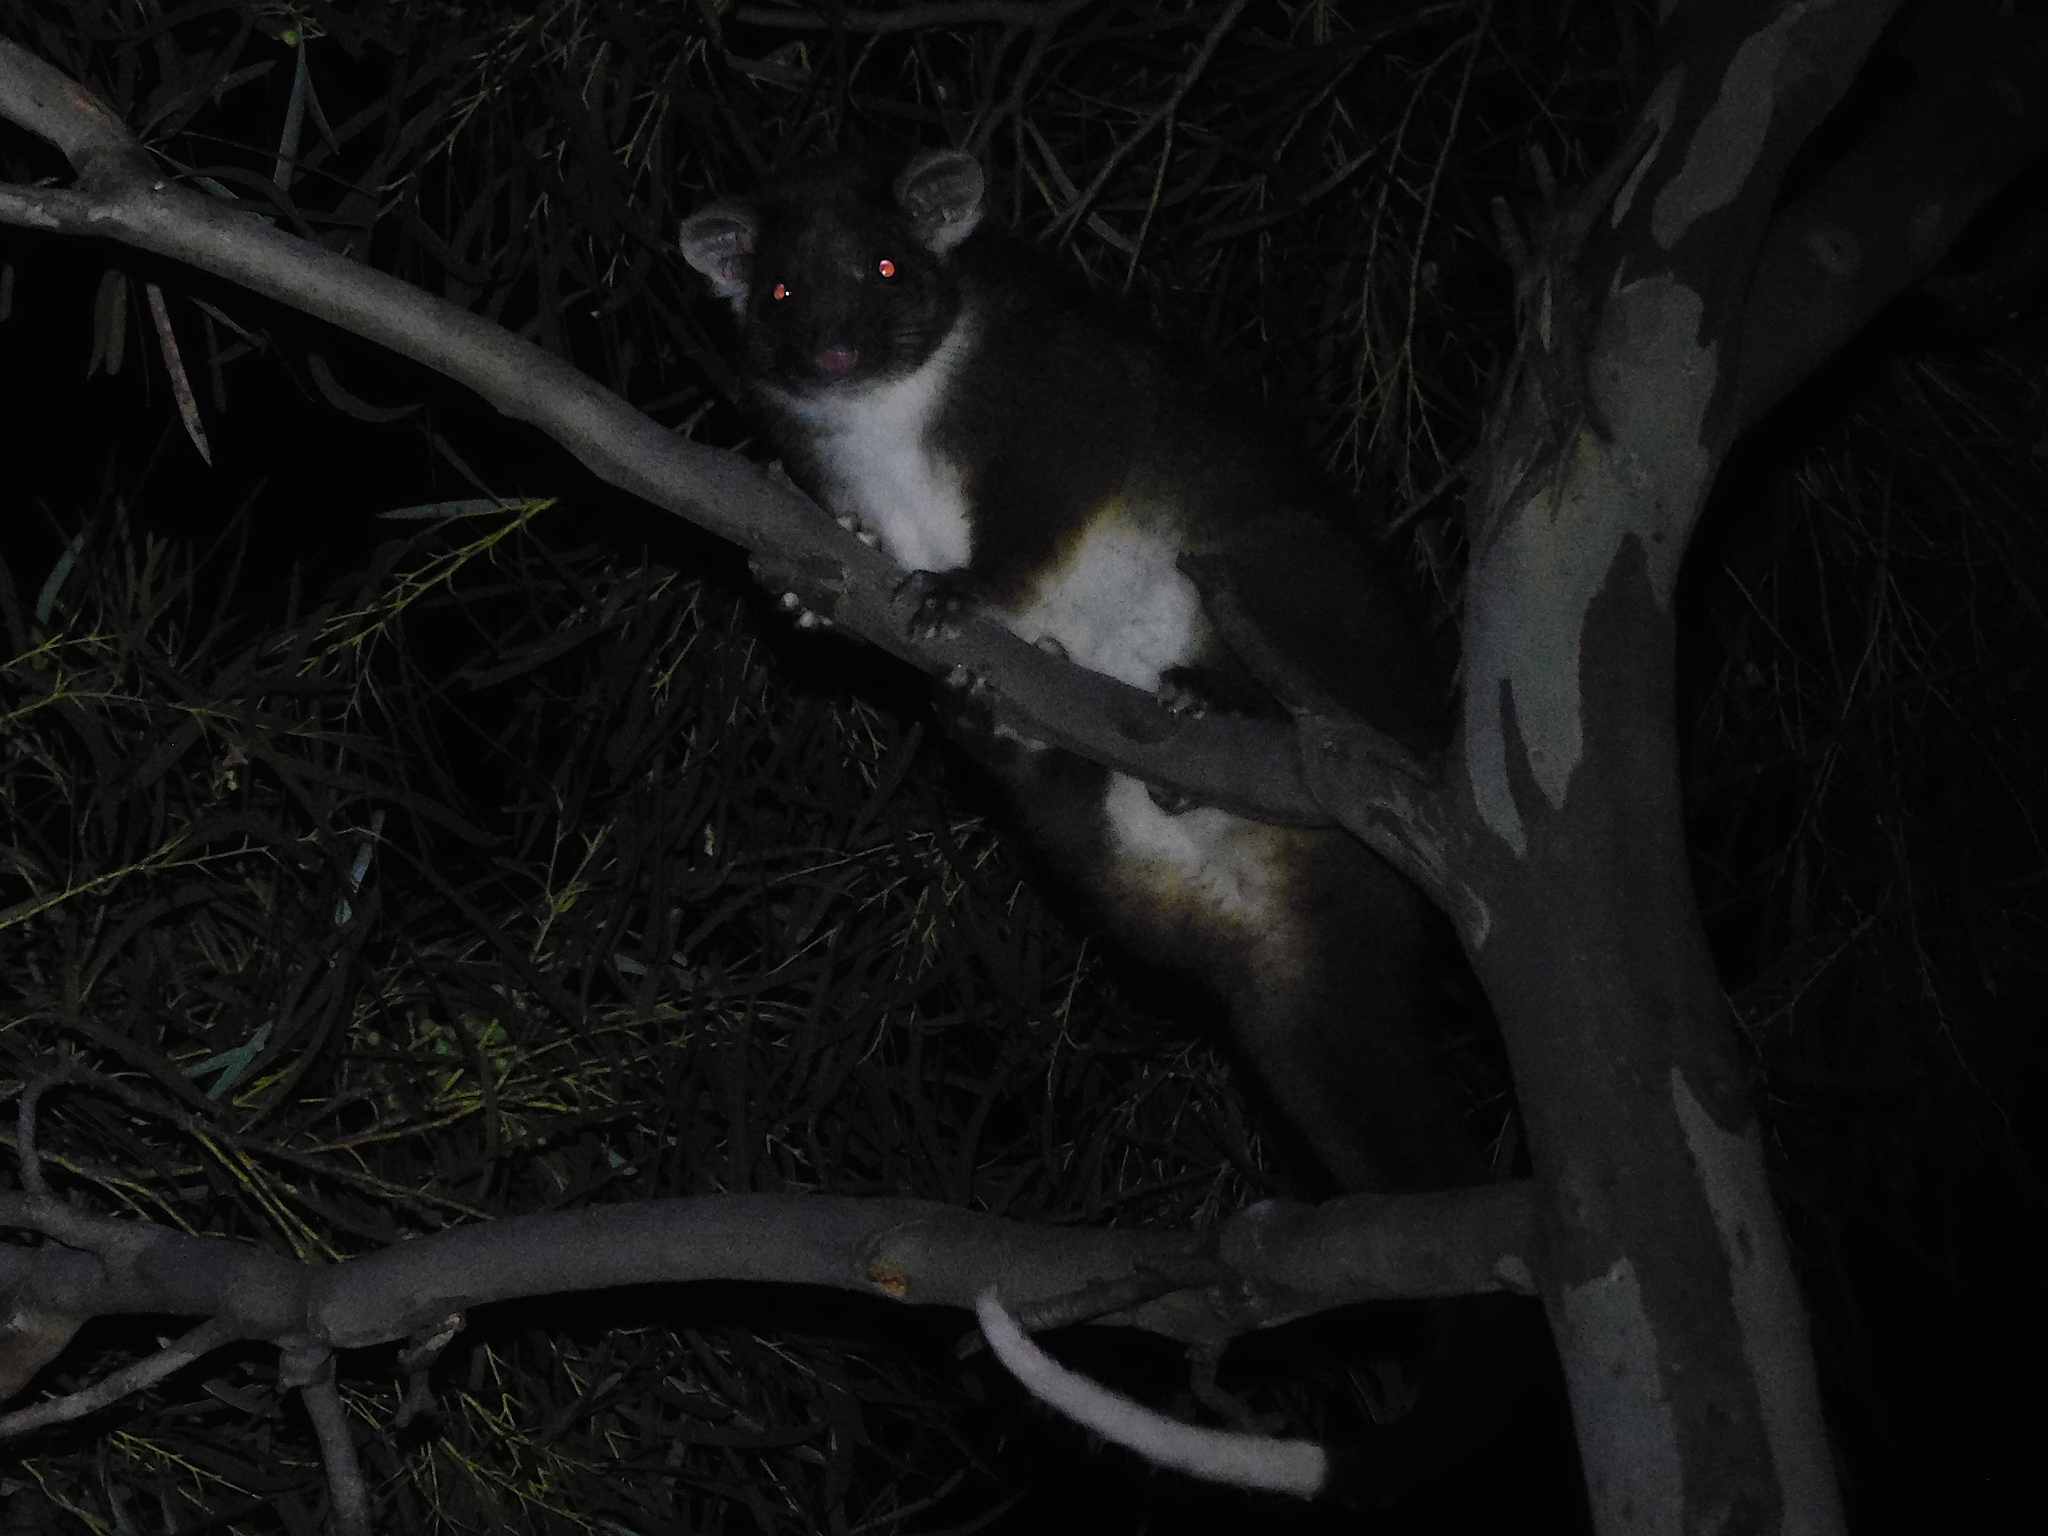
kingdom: Animalia
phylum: Chordata
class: Mammalia
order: Diprotodontia
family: Pseudocheiridae
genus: Pseudocheirus
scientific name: Pseudocheirus peregrinus
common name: Common ringtail possum
